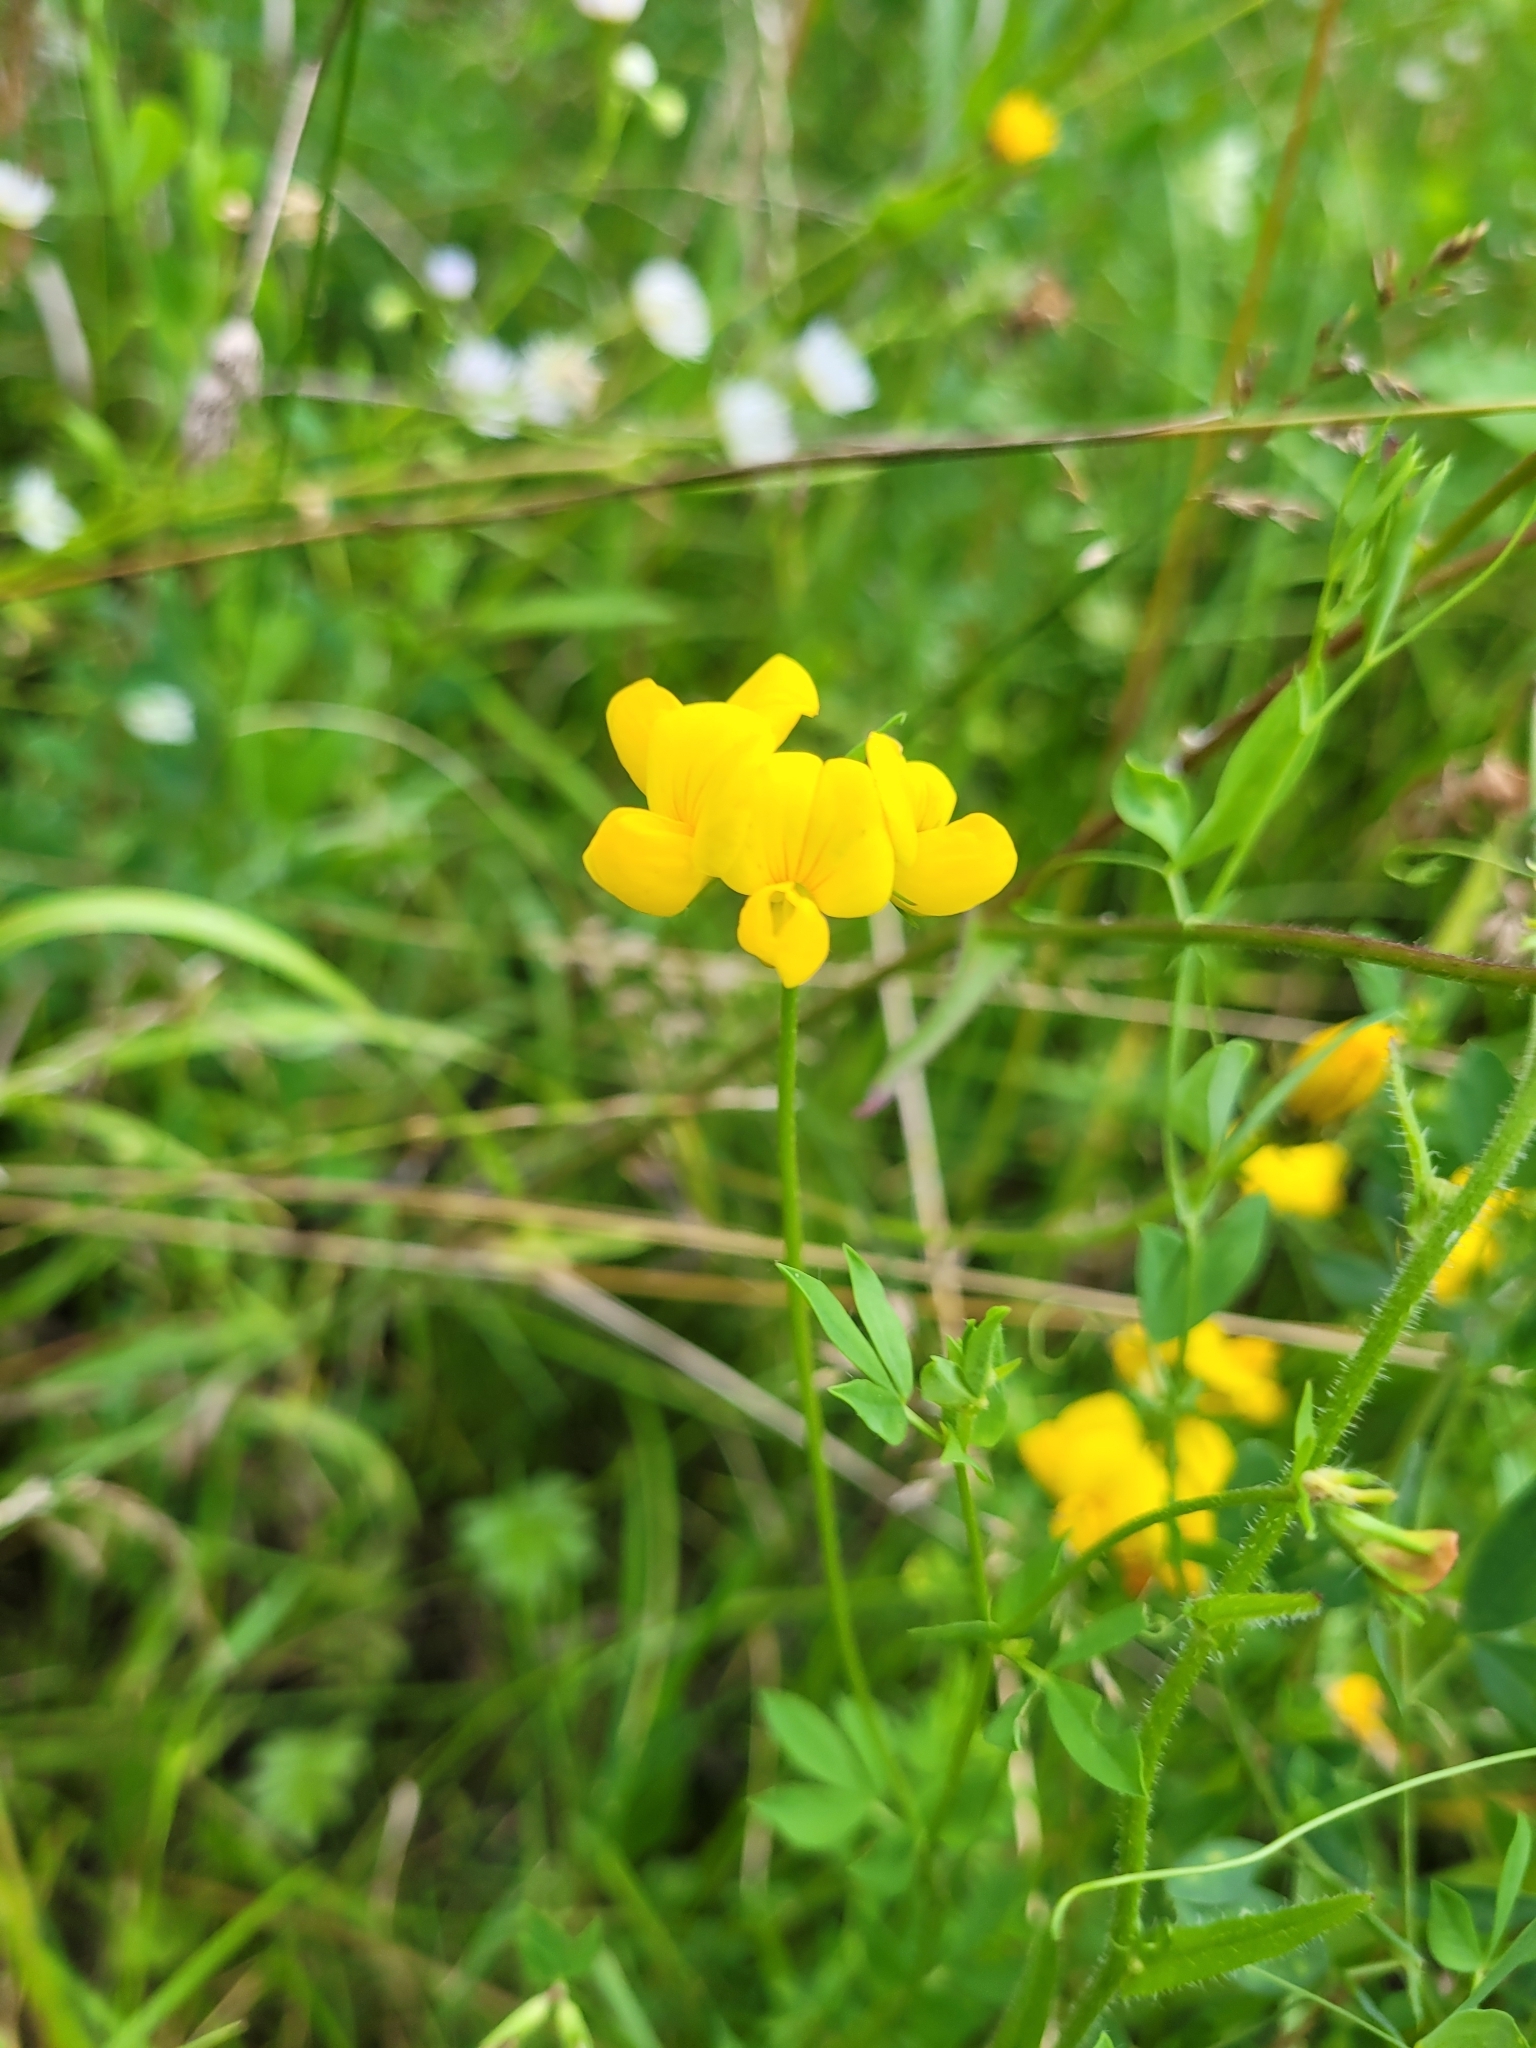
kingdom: Plantae
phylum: Tracheophyta
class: Magnoliopsida
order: Fabales
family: Fabaceae
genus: Lotus
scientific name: Lotus corniculatus
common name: Common bird's-foot-trefoil
